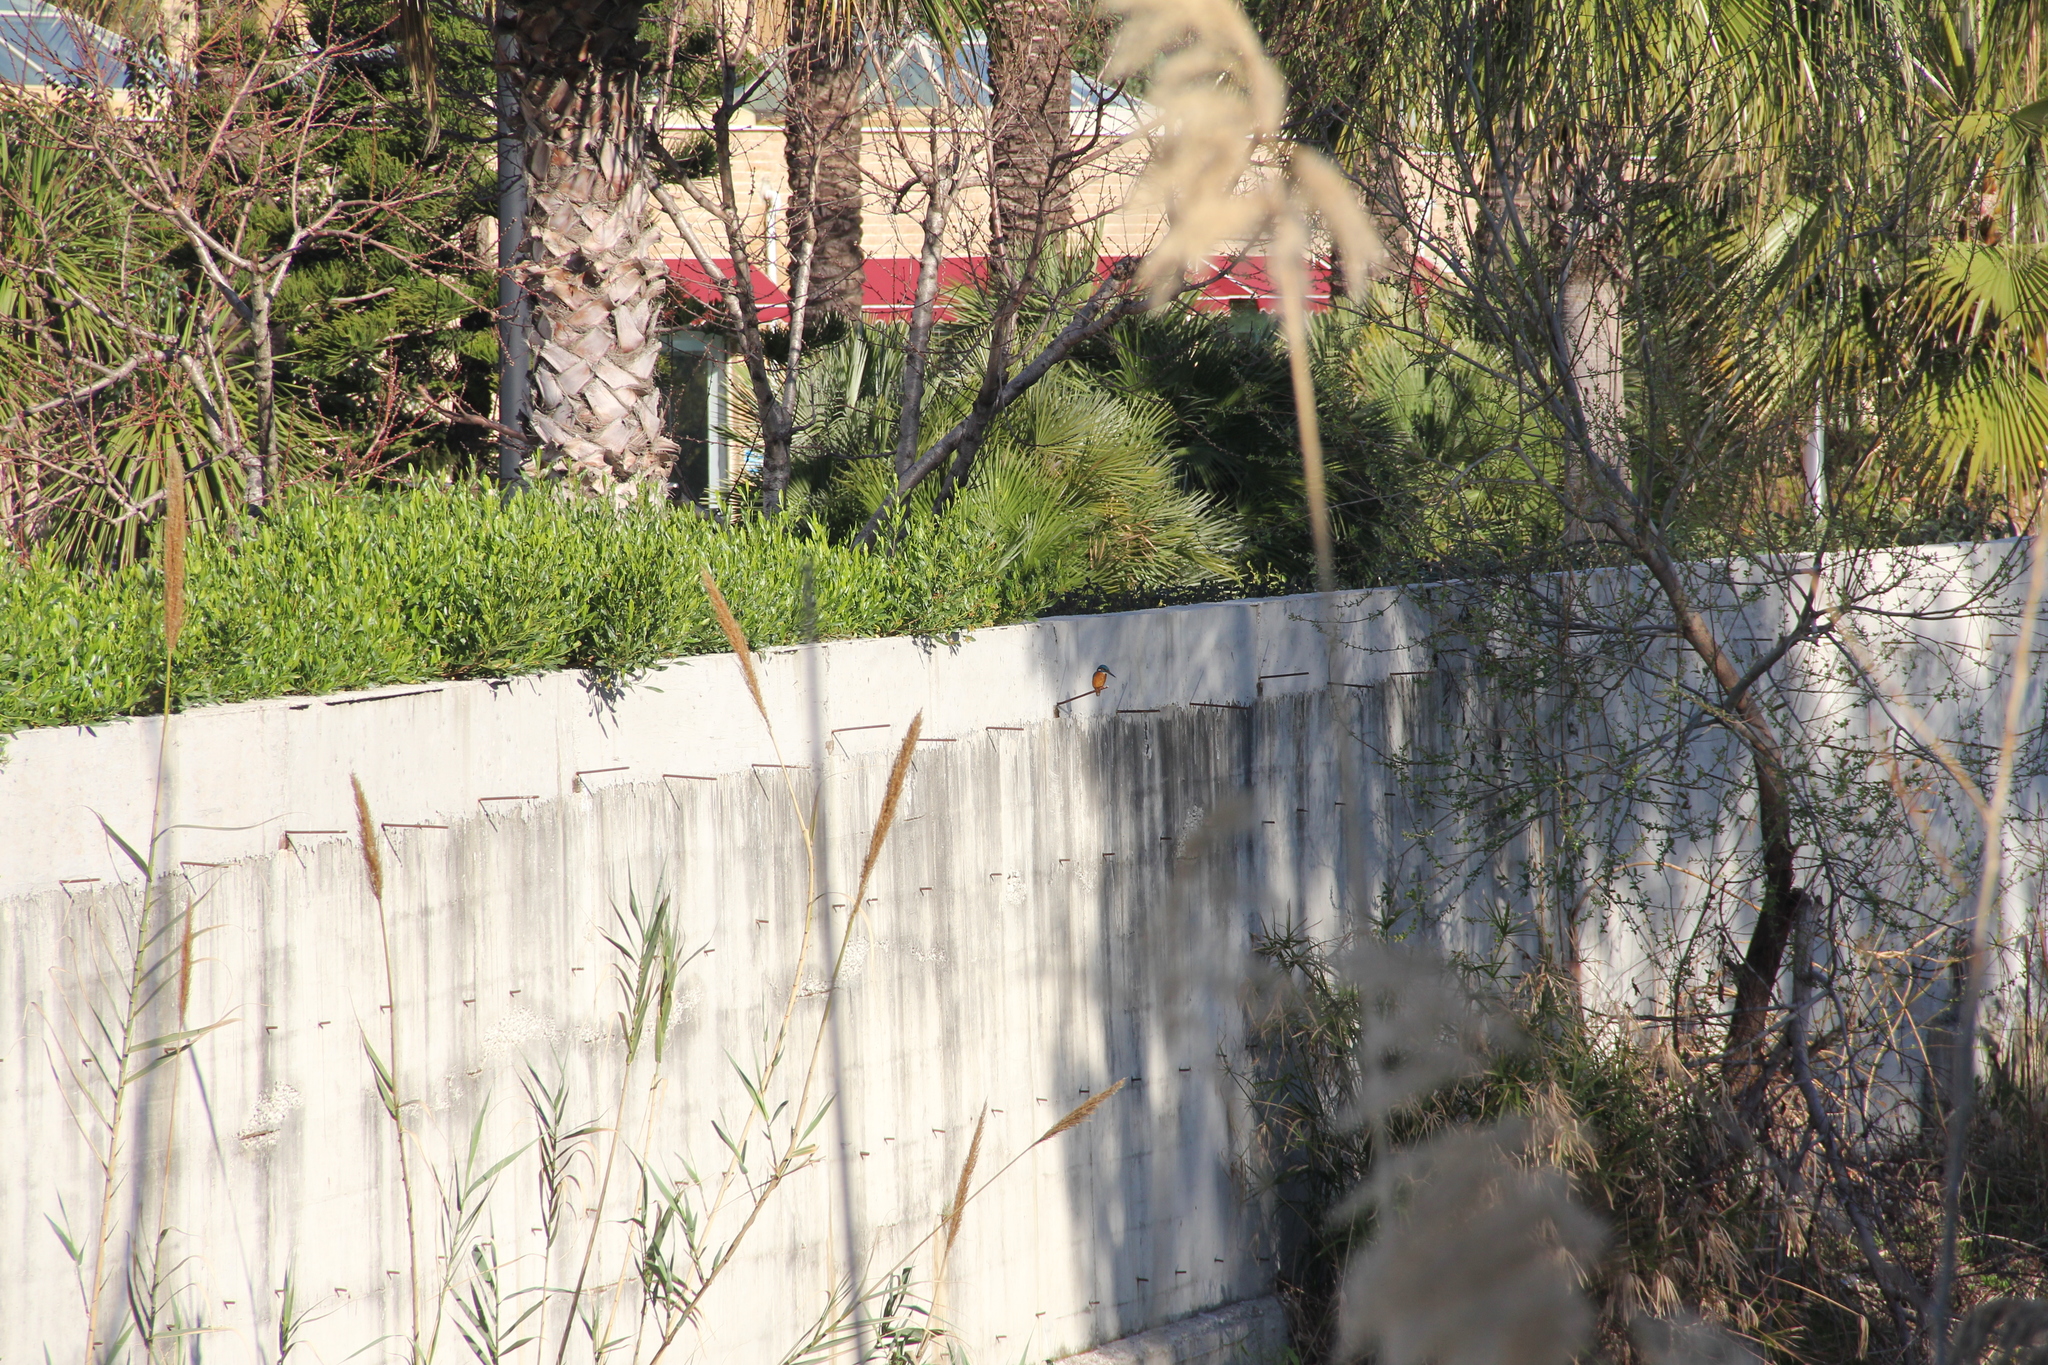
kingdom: Animalia
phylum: Chordata
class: Aves
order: Coraciiformes
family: Alcedinidae
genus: Alcedo
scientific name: Alcedo atthis
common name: Common kingfisher
